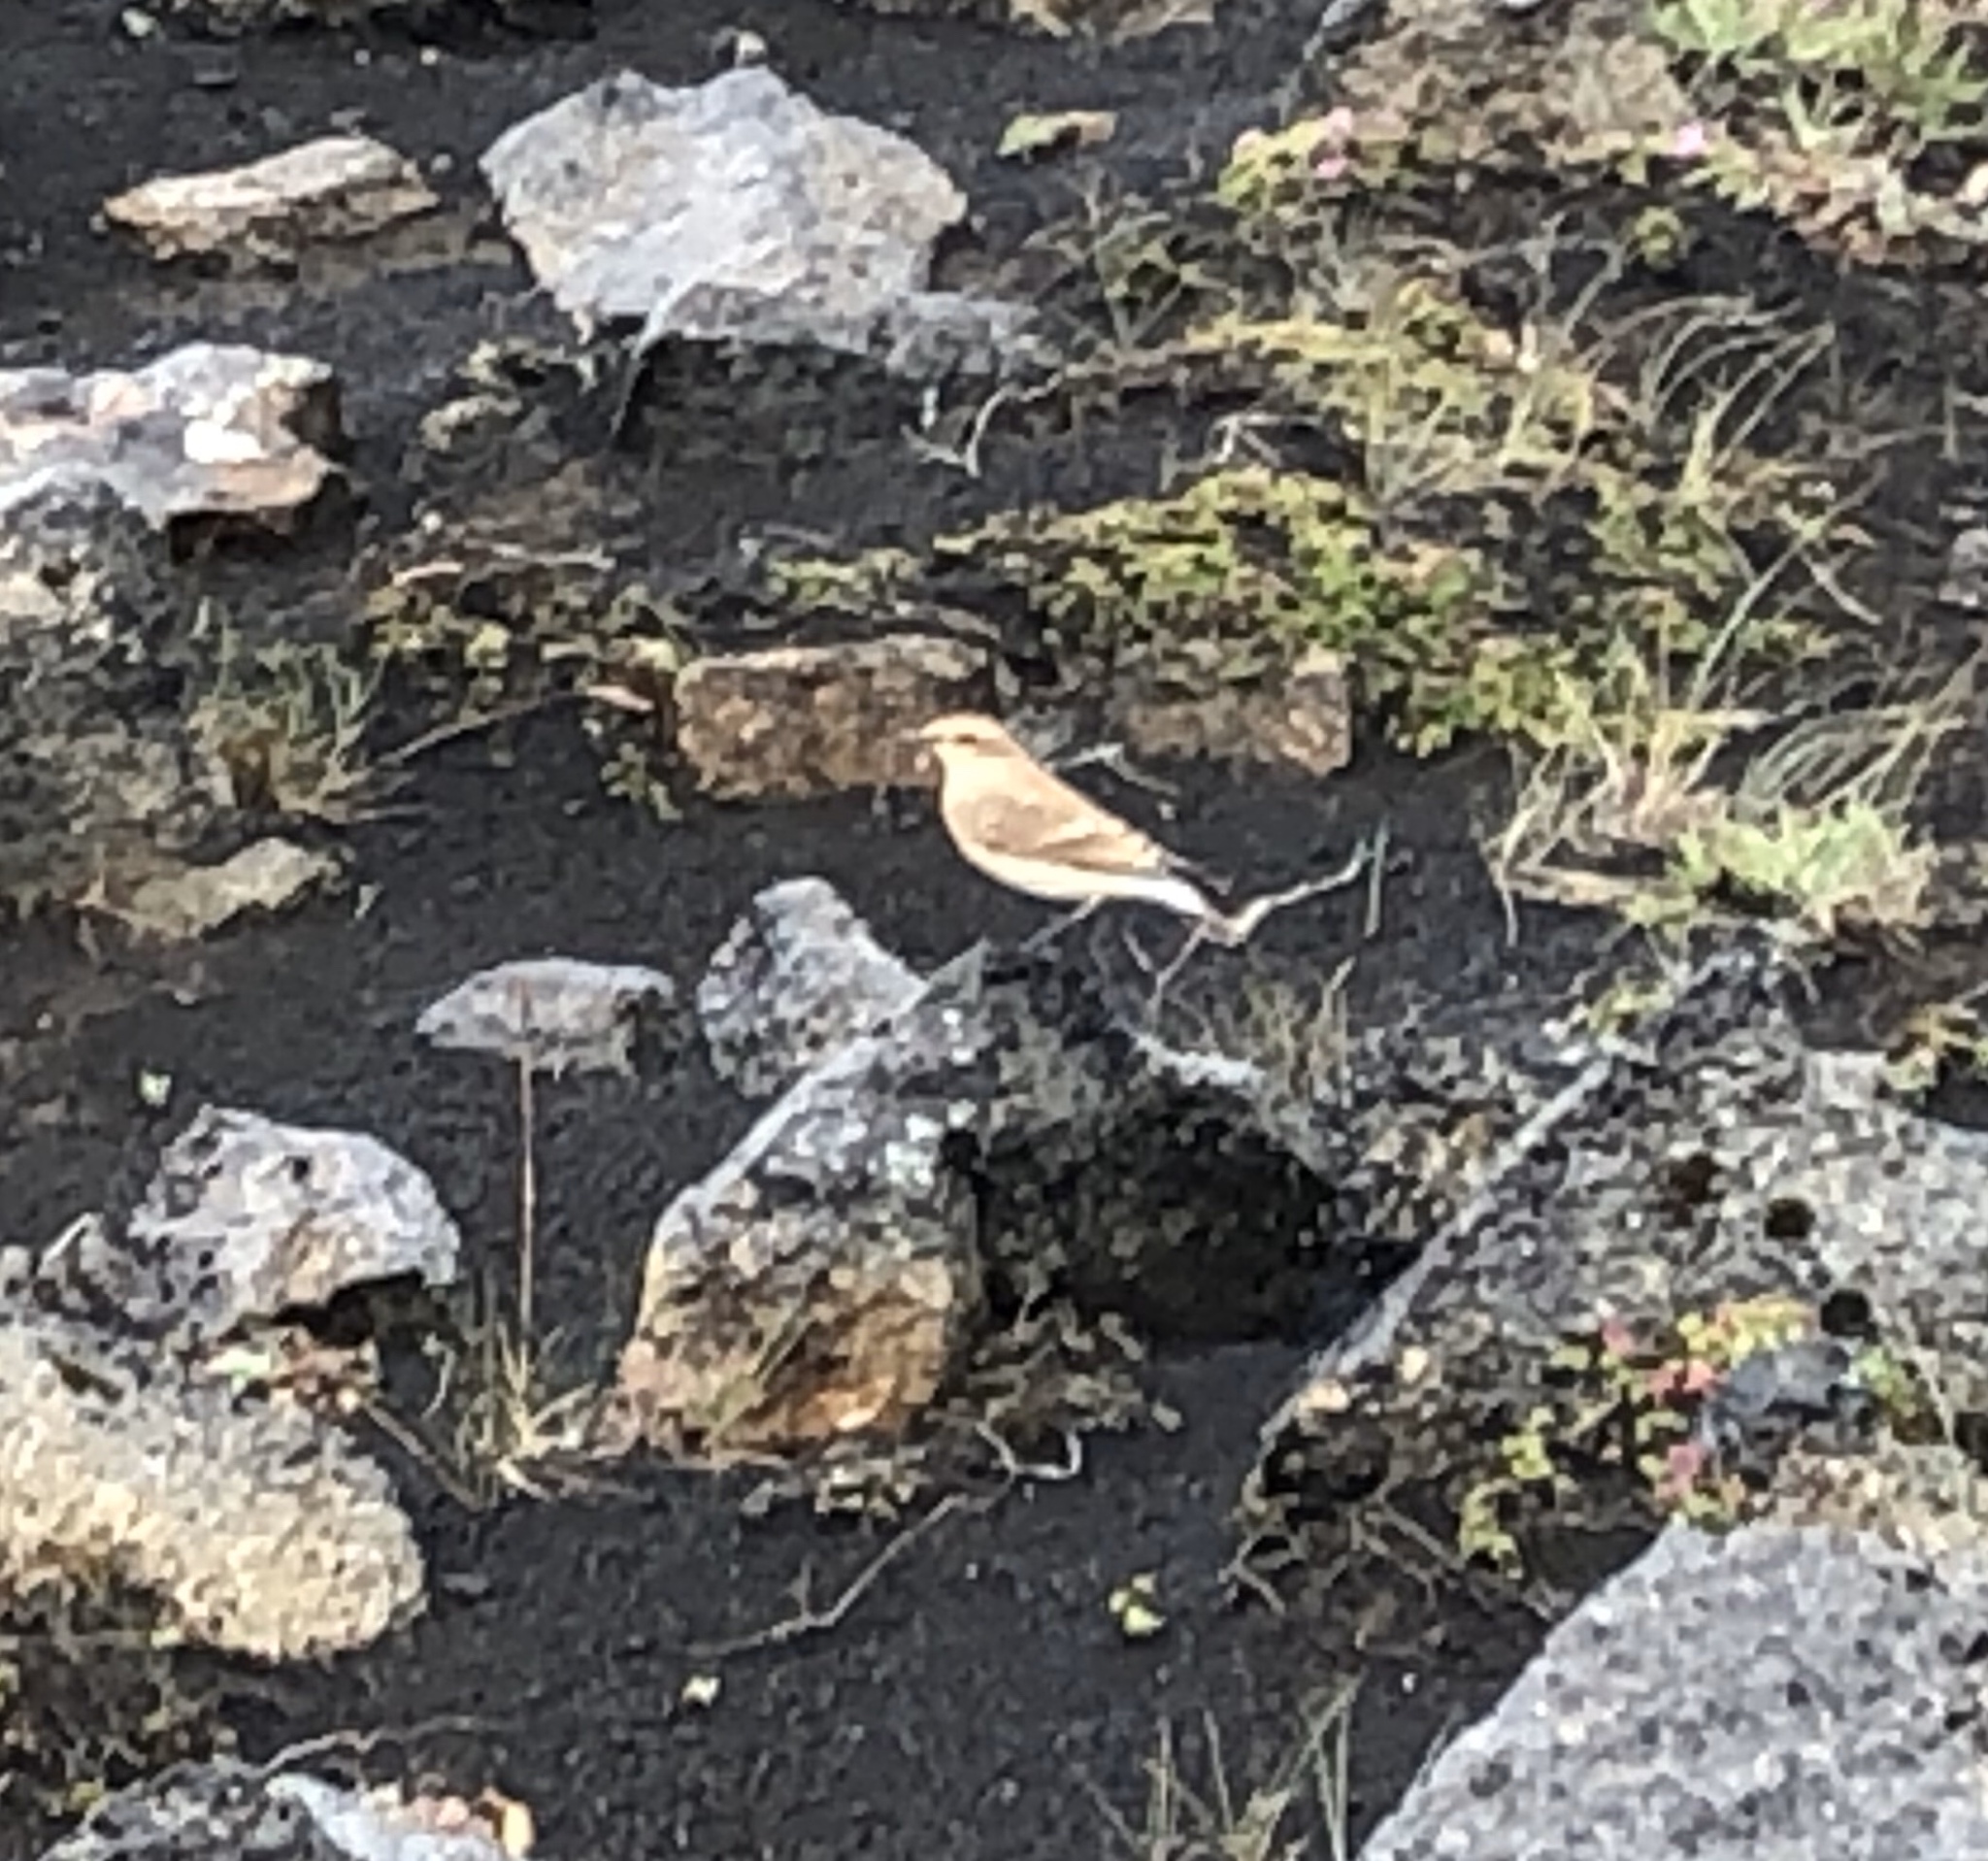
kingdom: Animalia
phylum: Chordata
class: Aves
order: Passeriformes
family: Muscicapidae
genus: Oenanthe
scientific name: Oenanthe oenanthe
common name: Northern wheatear
